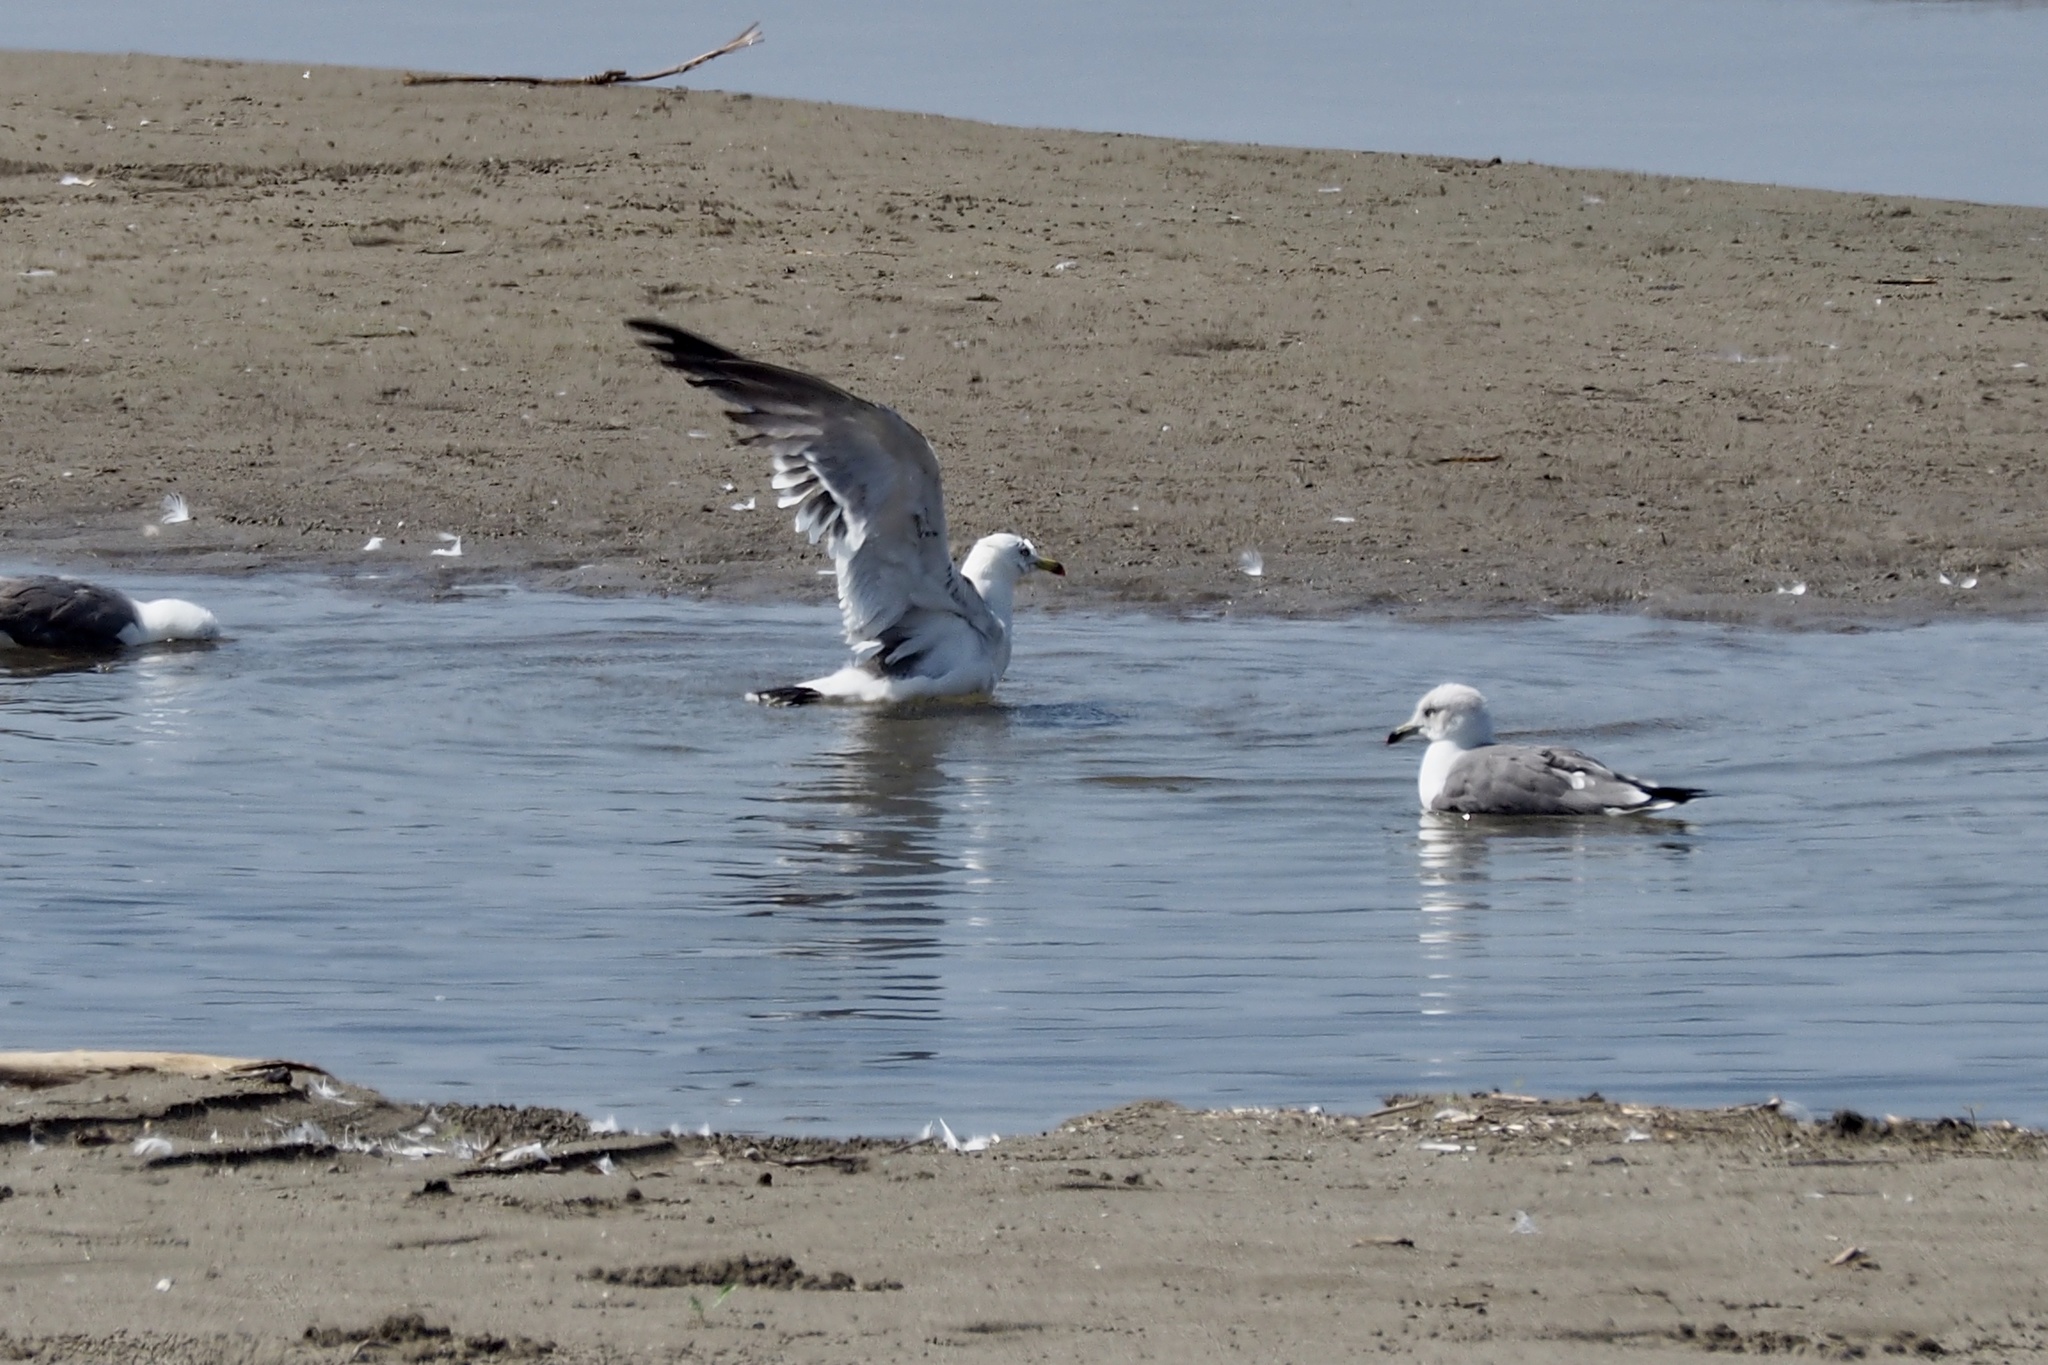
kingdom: Animalia
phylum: Chordata
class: Aves
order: Charadriiformes
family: Laridae
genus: Larus
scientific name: Larus crassirostris
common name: Black-tailed gull
